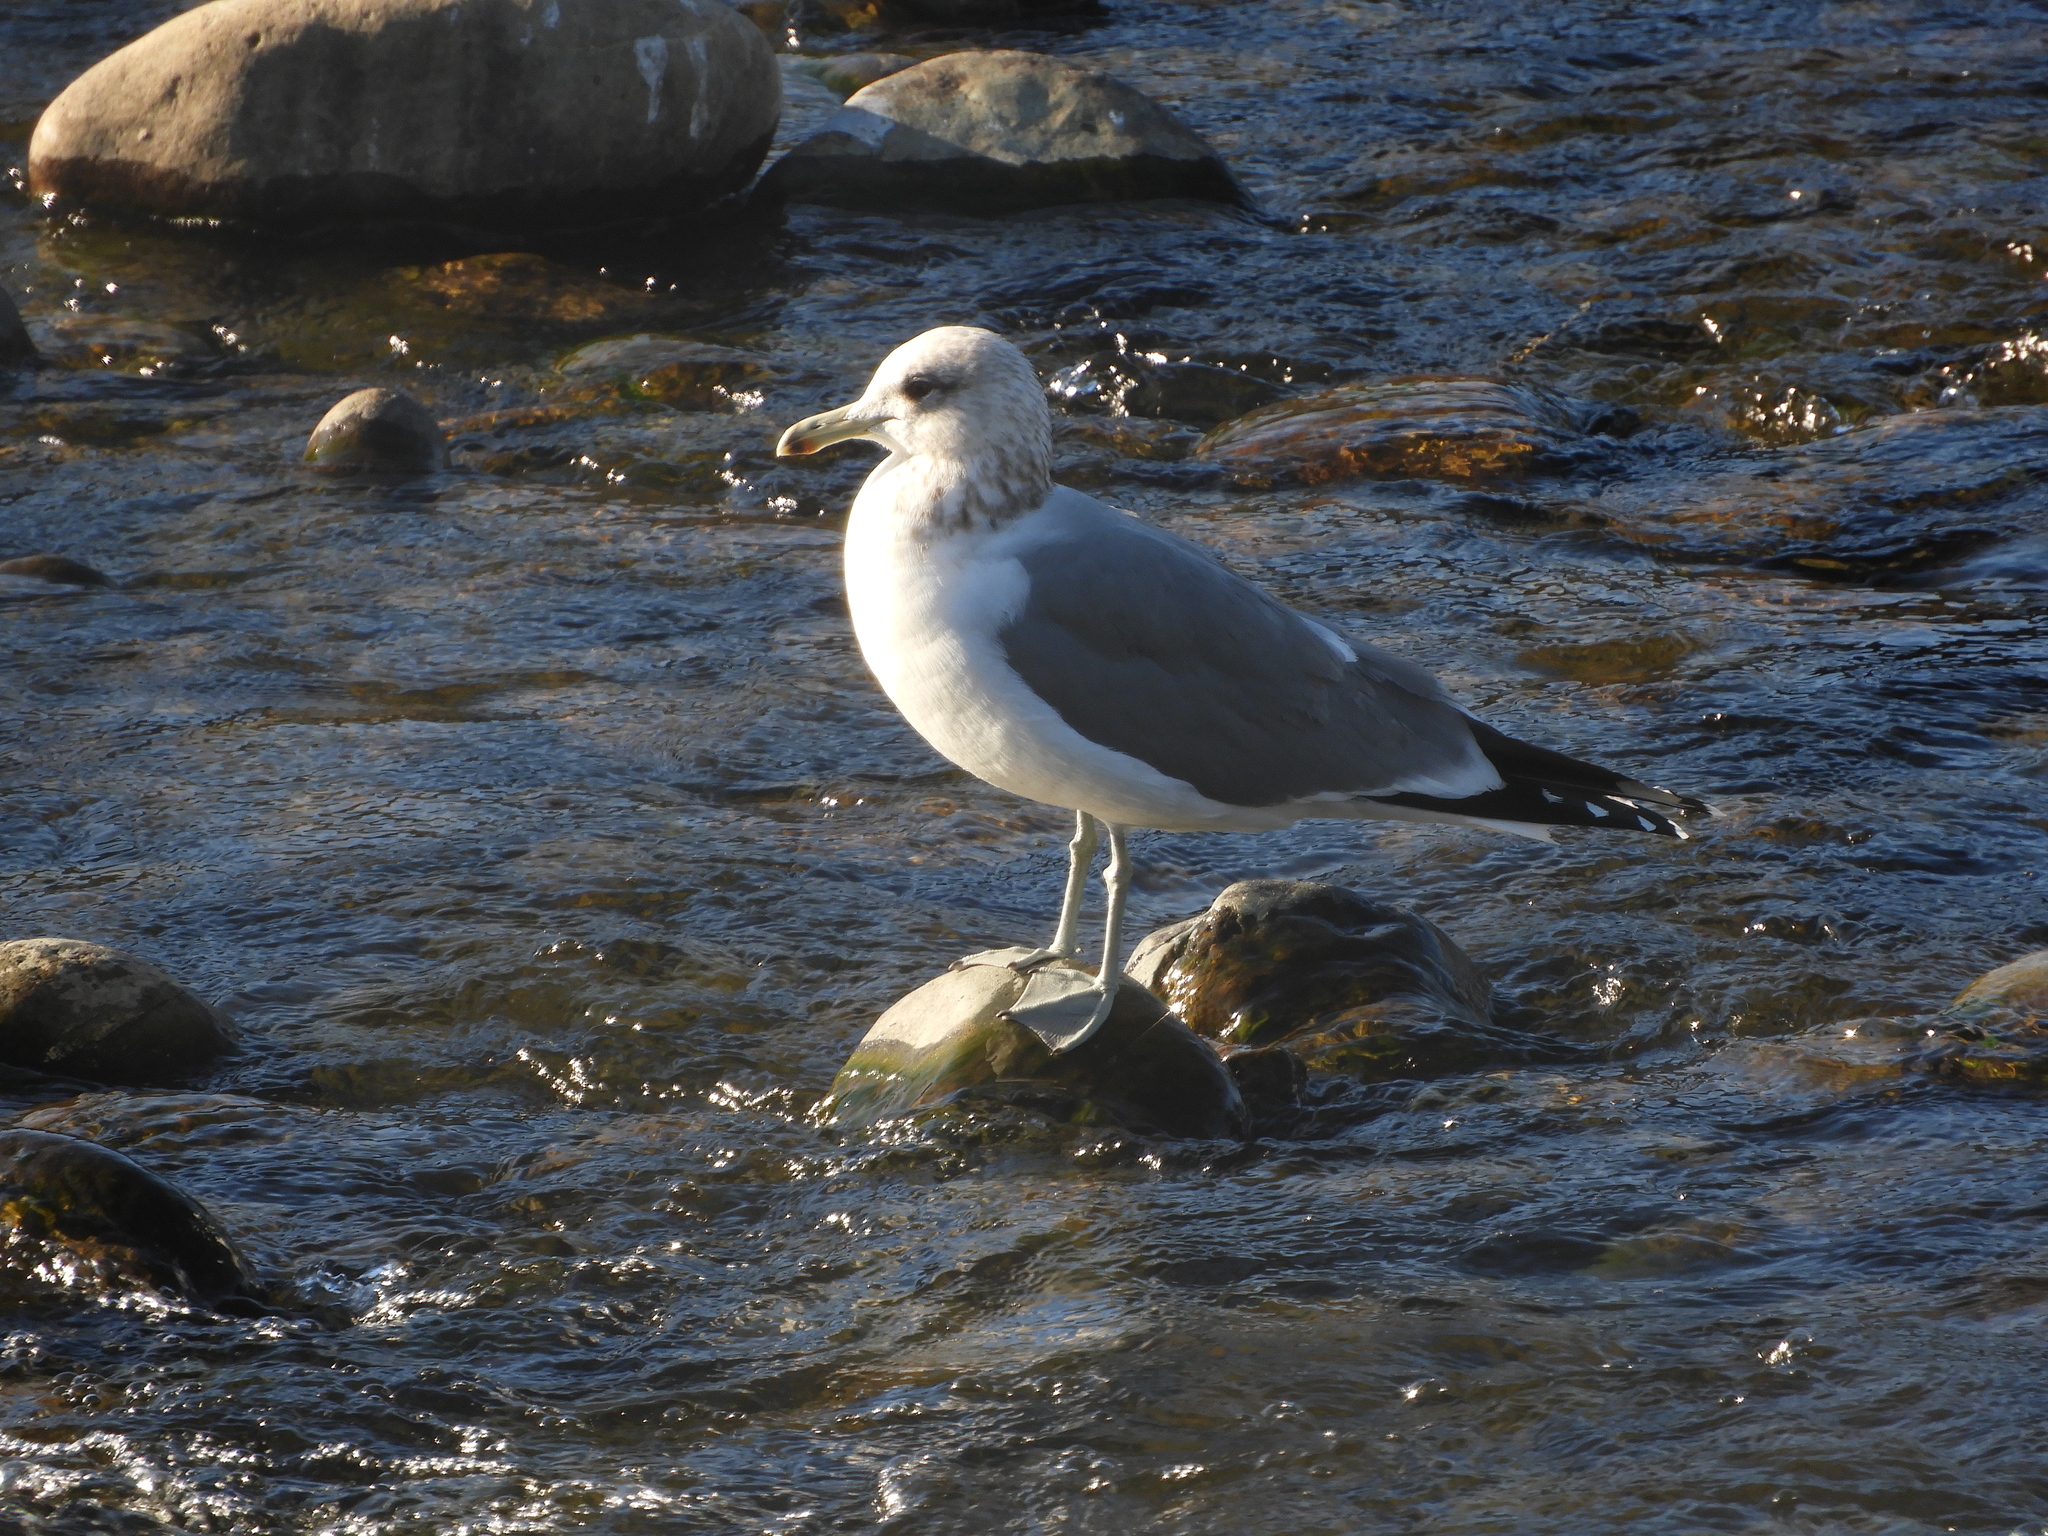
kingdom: Animalia
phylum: Chordata
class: Aves
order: Charadriiformes
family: Laridae
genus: Larus
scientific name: Larus californicus
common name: California gull
